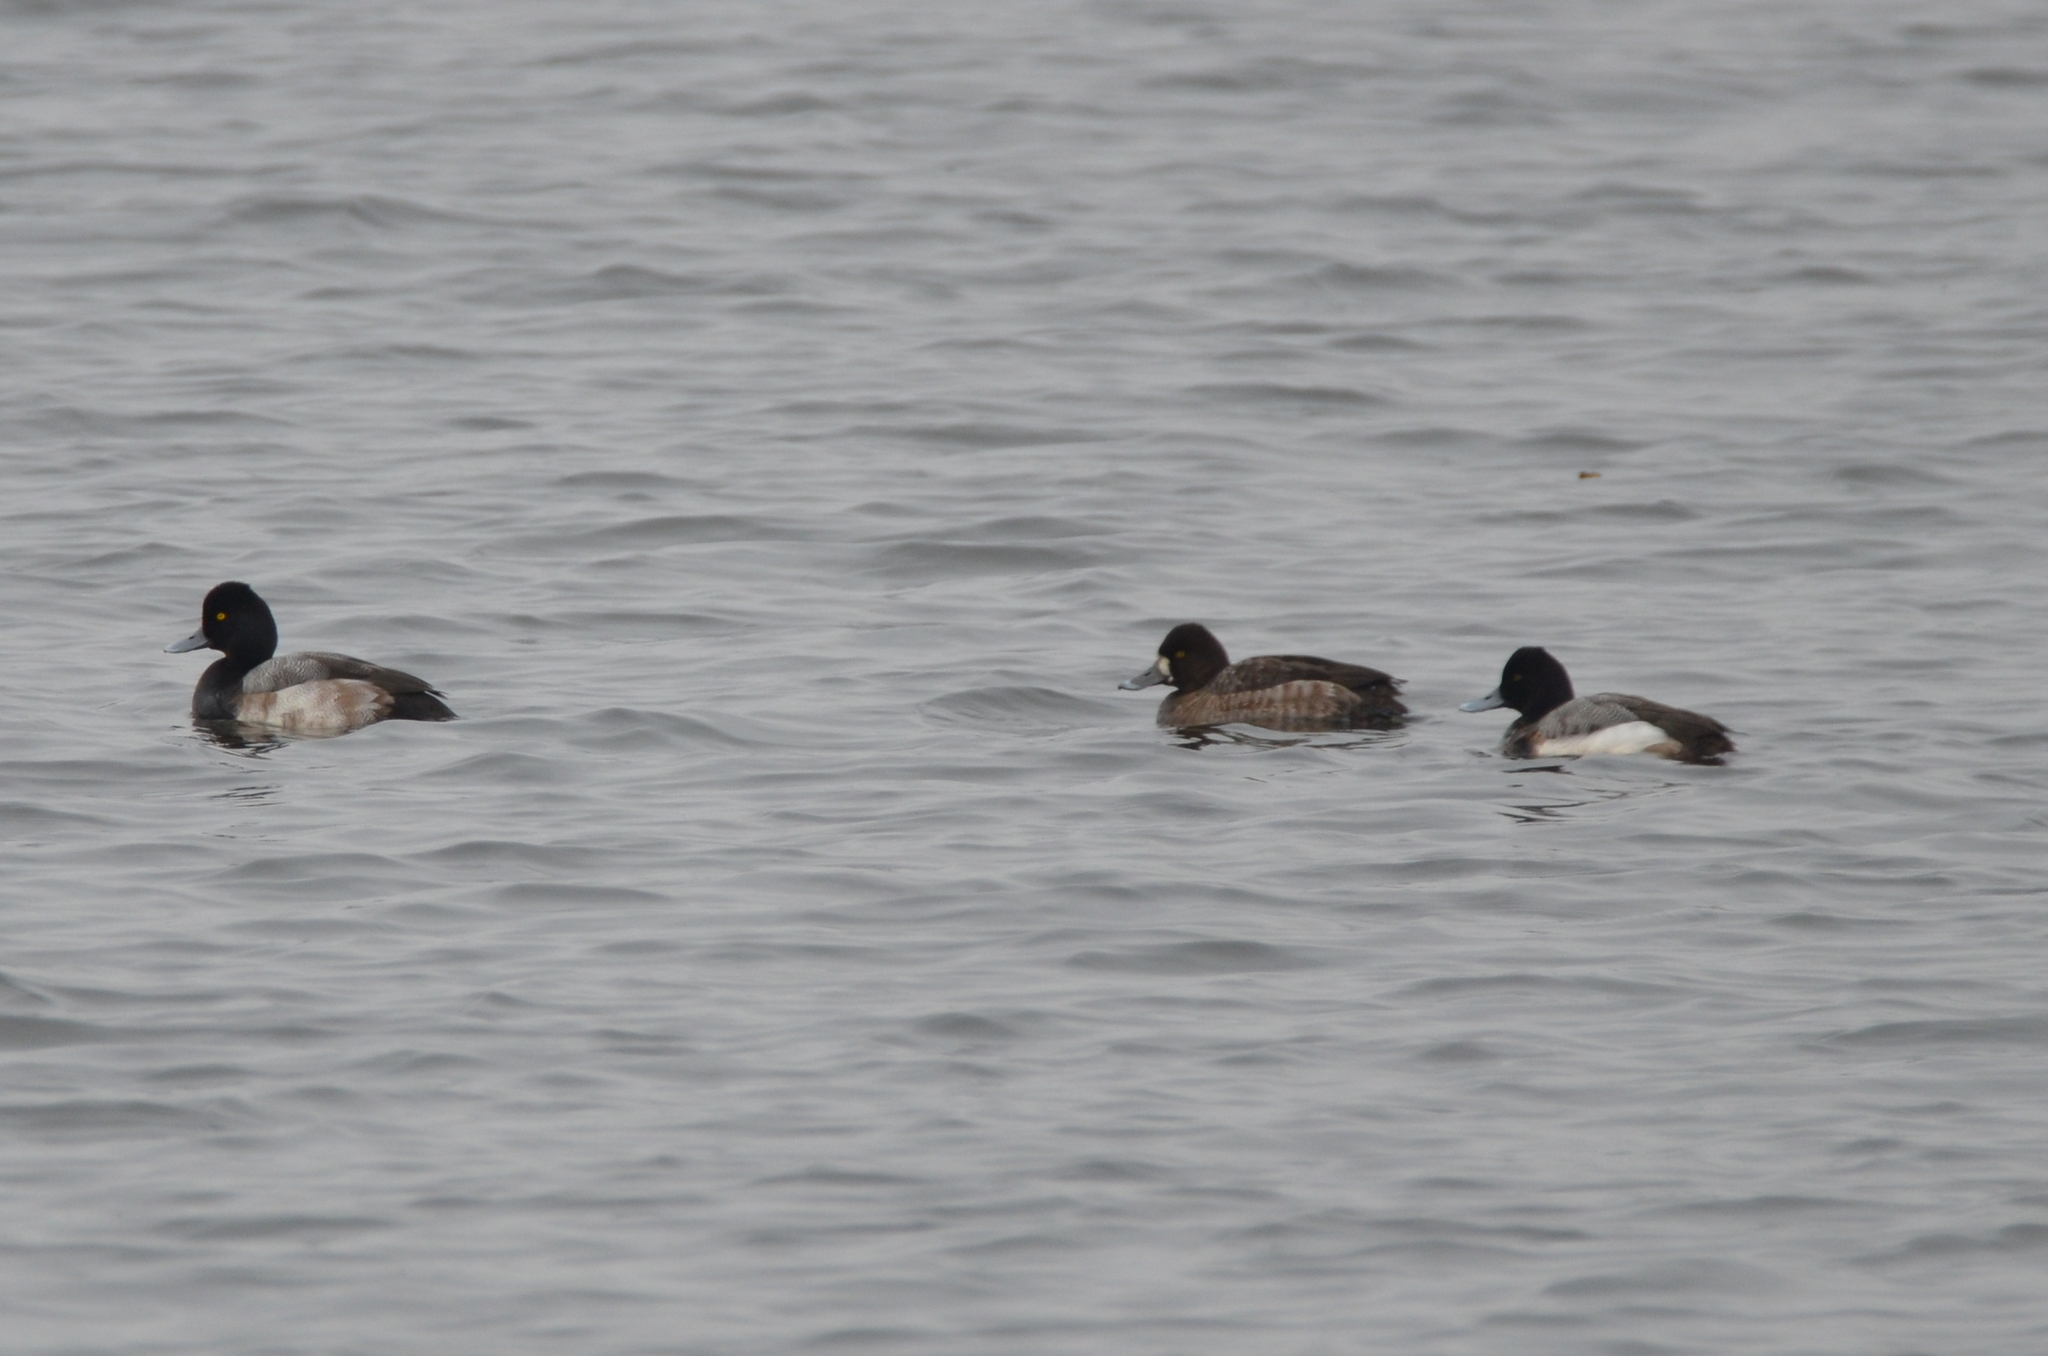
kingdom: Animalia
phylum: Chordata
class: Aves
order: Anseriformes
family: Anatidae
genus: Aythya
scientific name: Aythya affinis
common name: Lesser scaup
